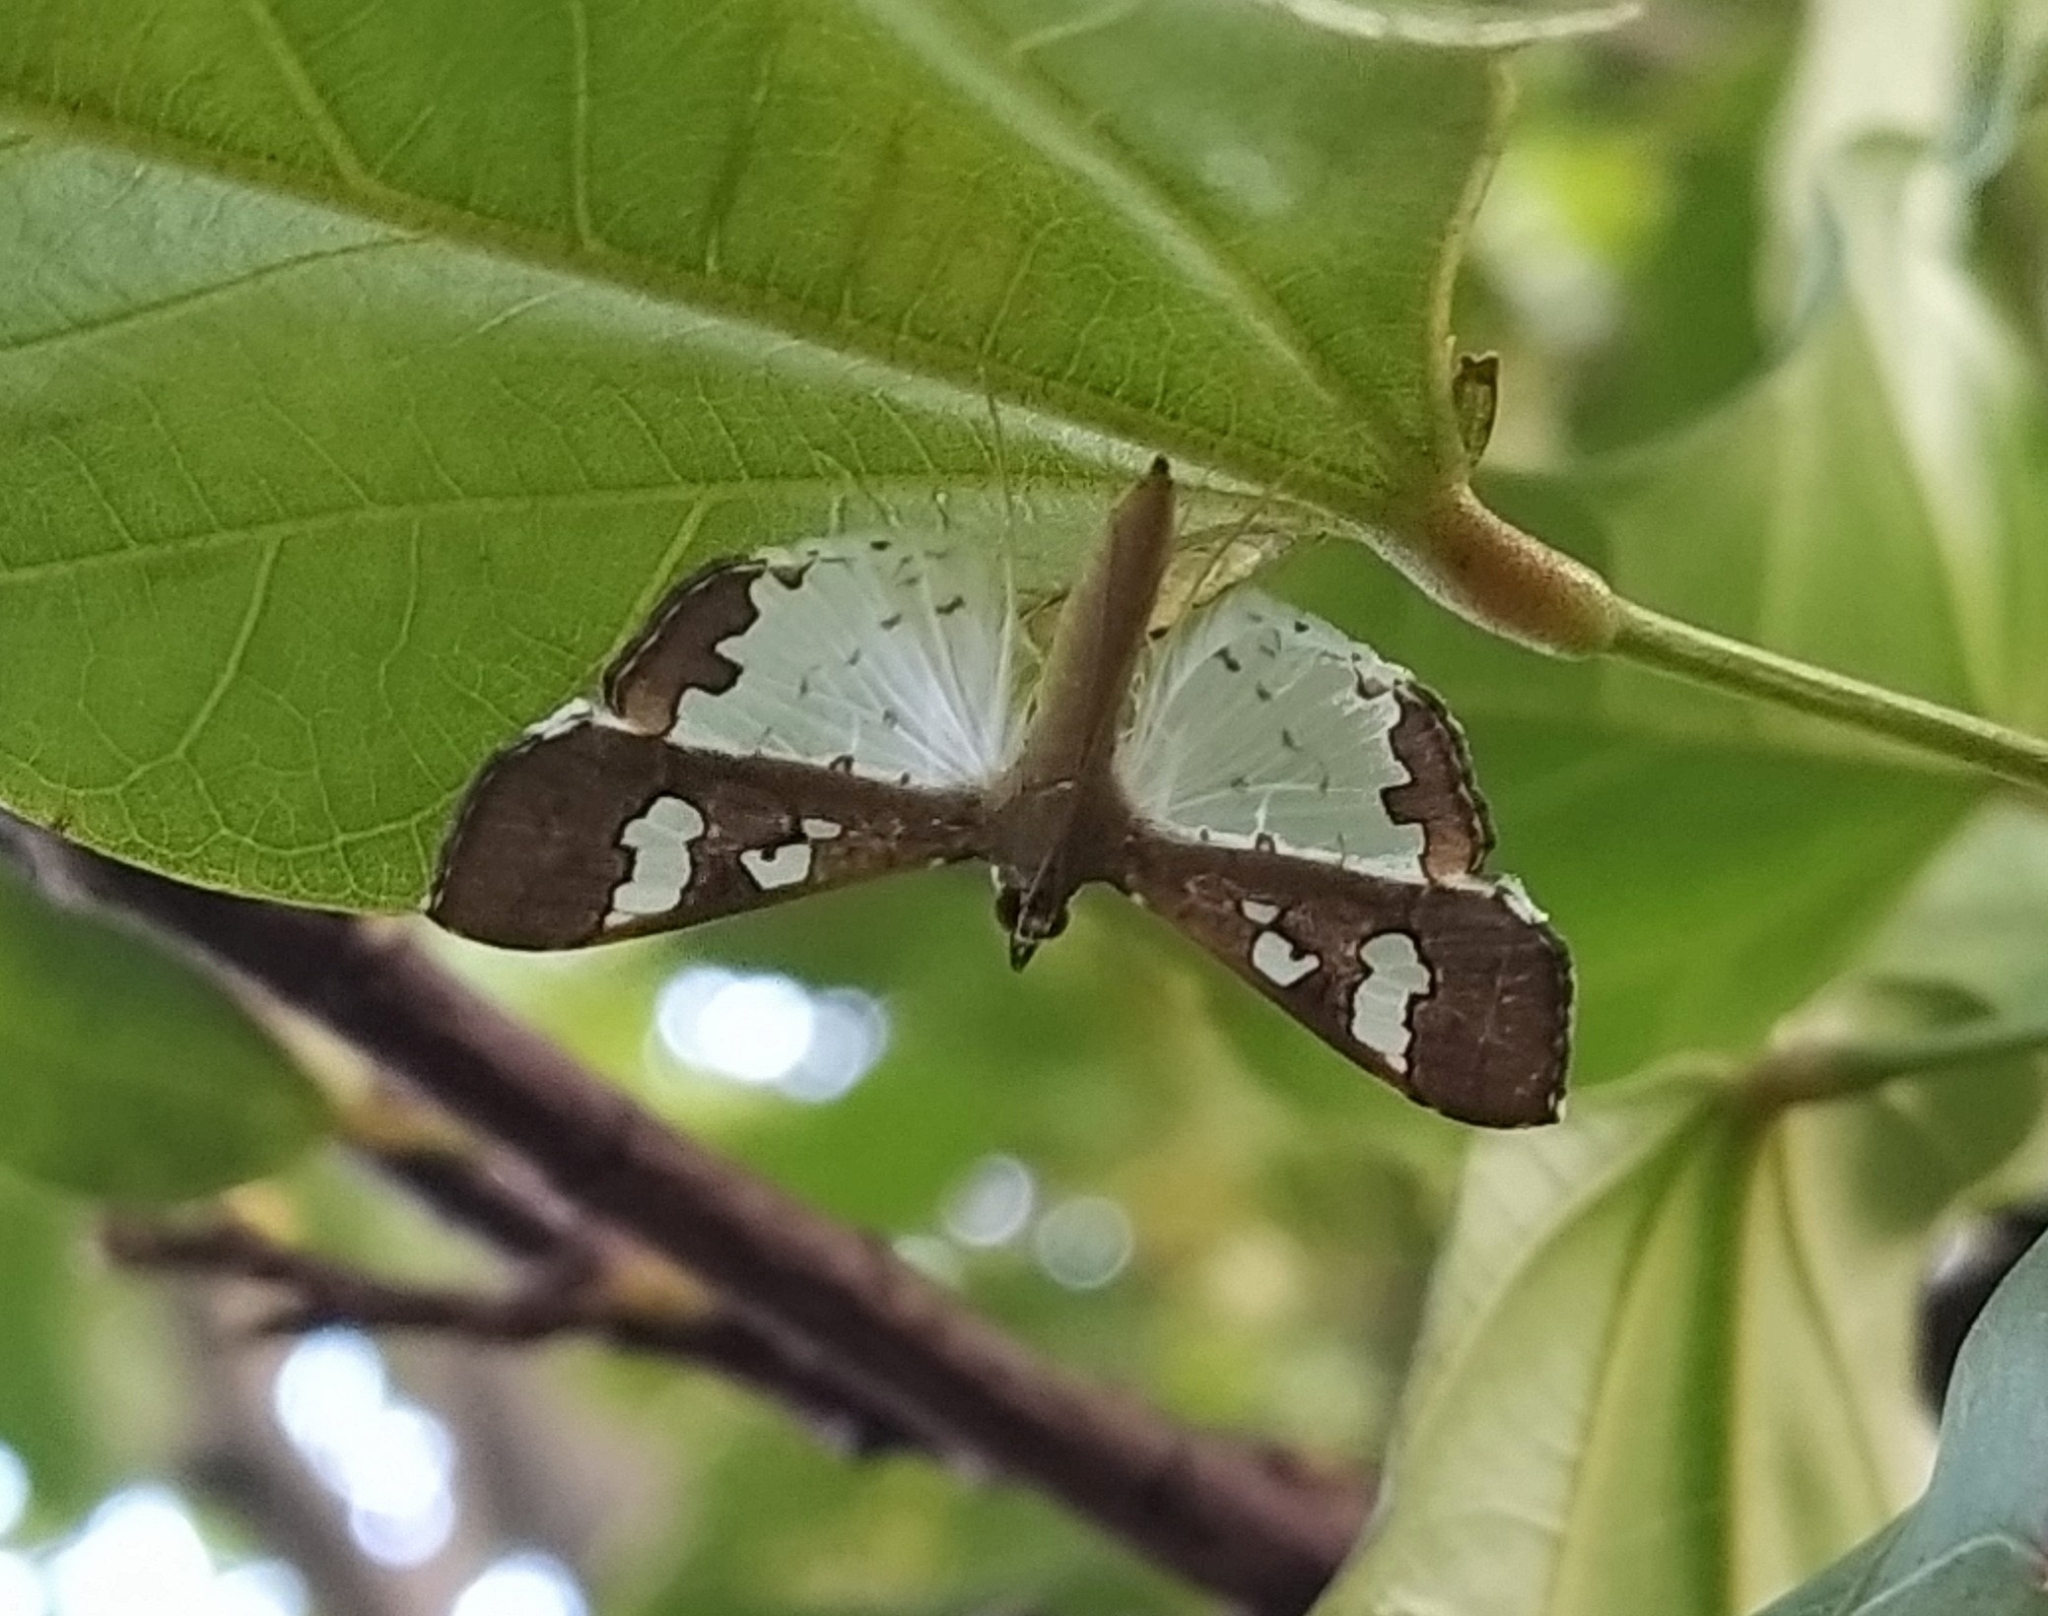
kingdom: Animalia
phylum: Arthropoda
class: Insecta
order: Lepidoptera
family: Crambidae
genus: Maruca
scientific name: Maruca vitrata
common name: Maruca pod borer
